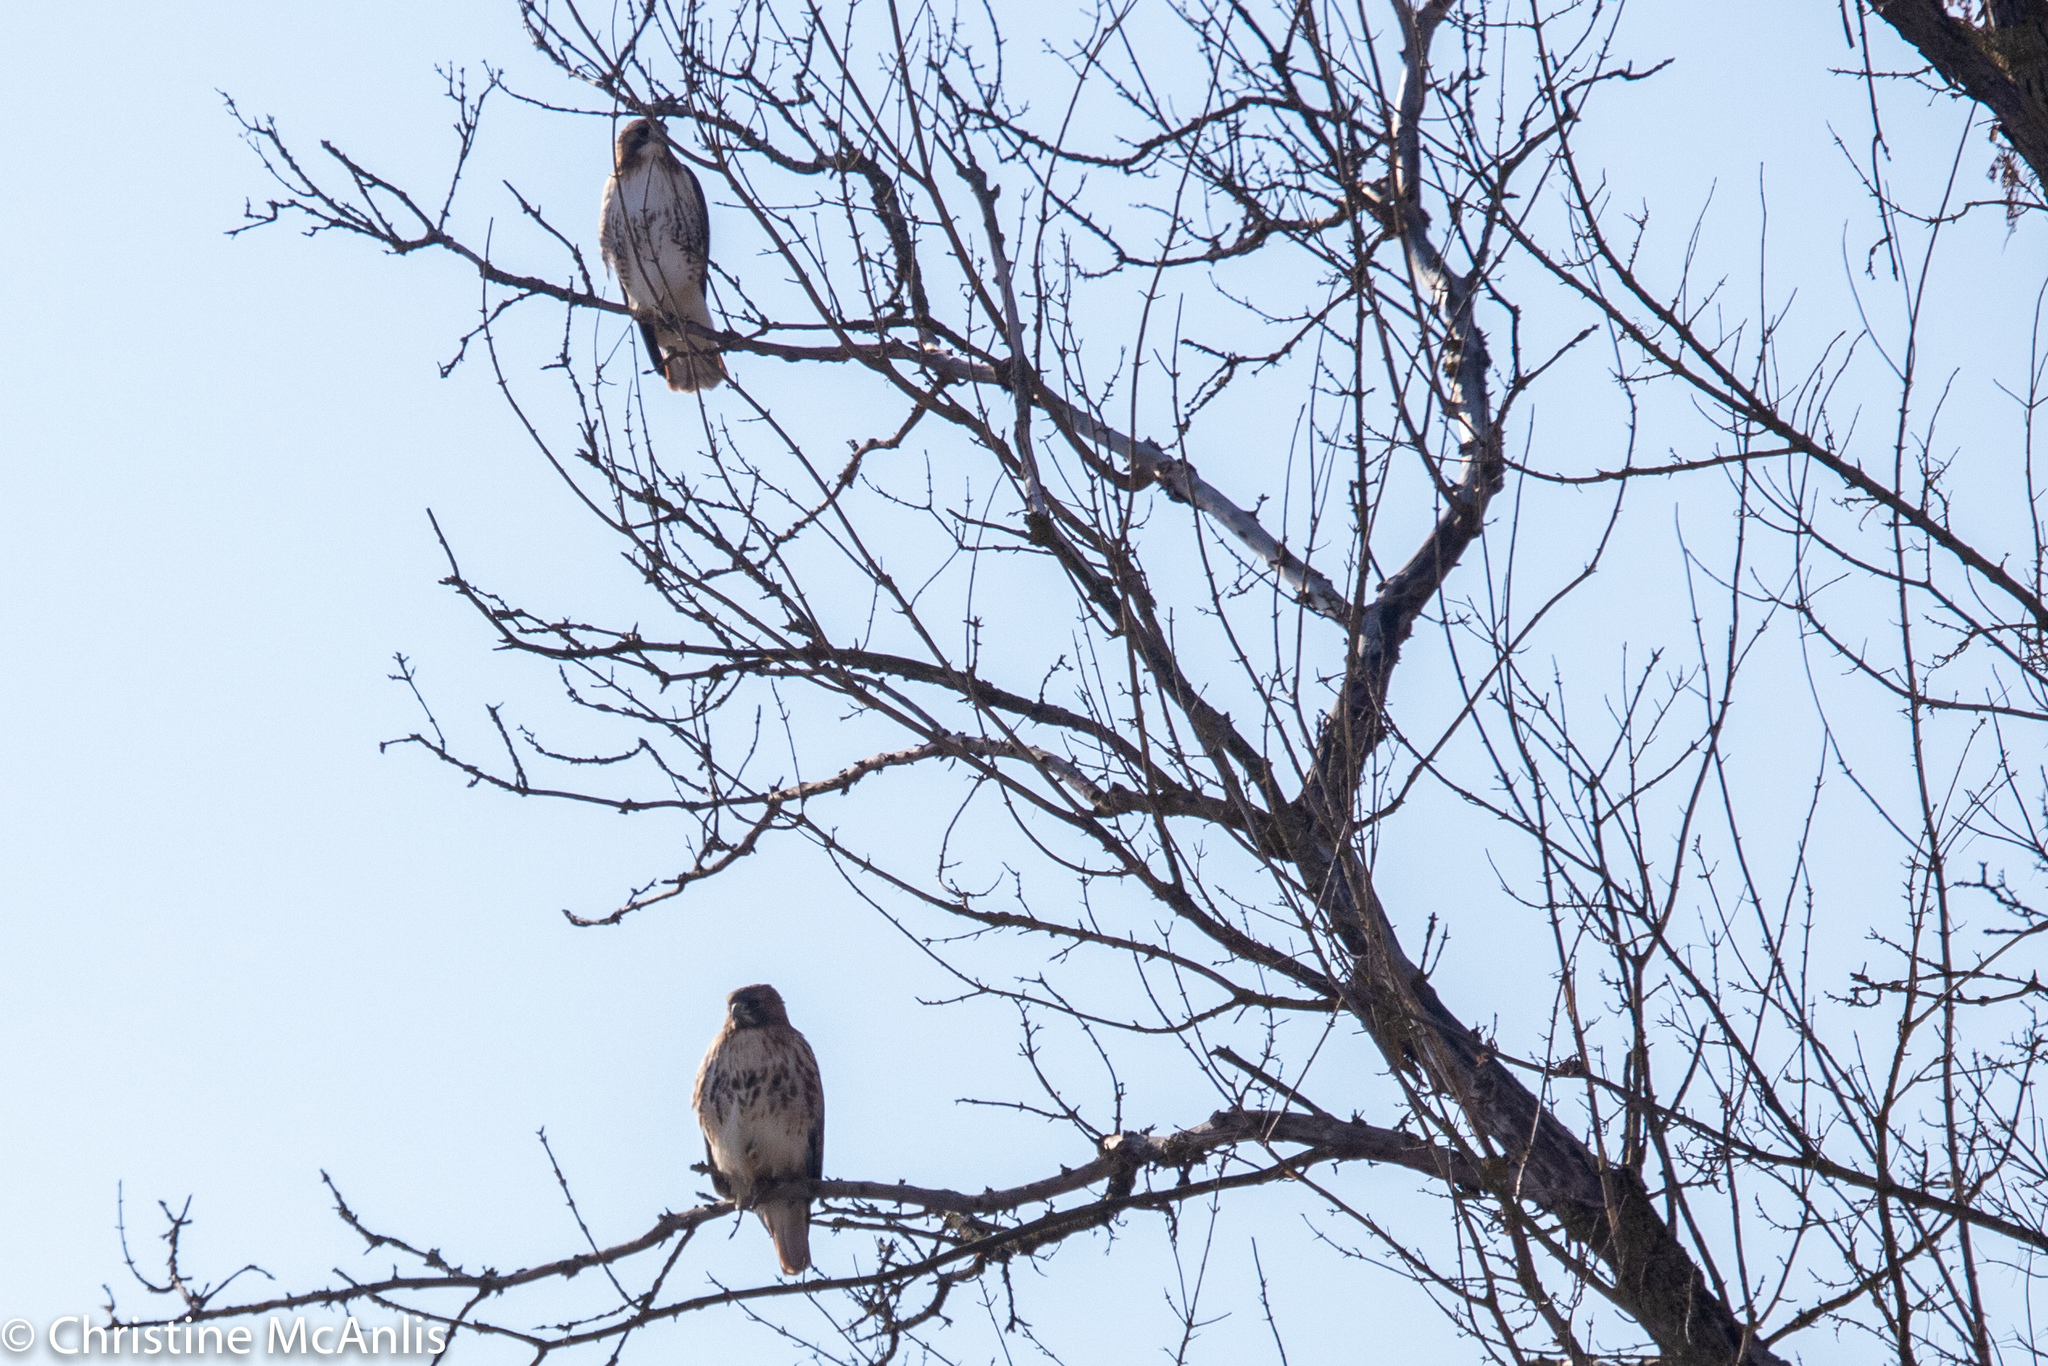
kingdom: Animalia
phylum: Chordata
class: Aves
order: Accipitriformes
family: Accipitridae
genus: Buteo
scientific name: Buteo jamaicensis
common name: Red-tailed hawk
